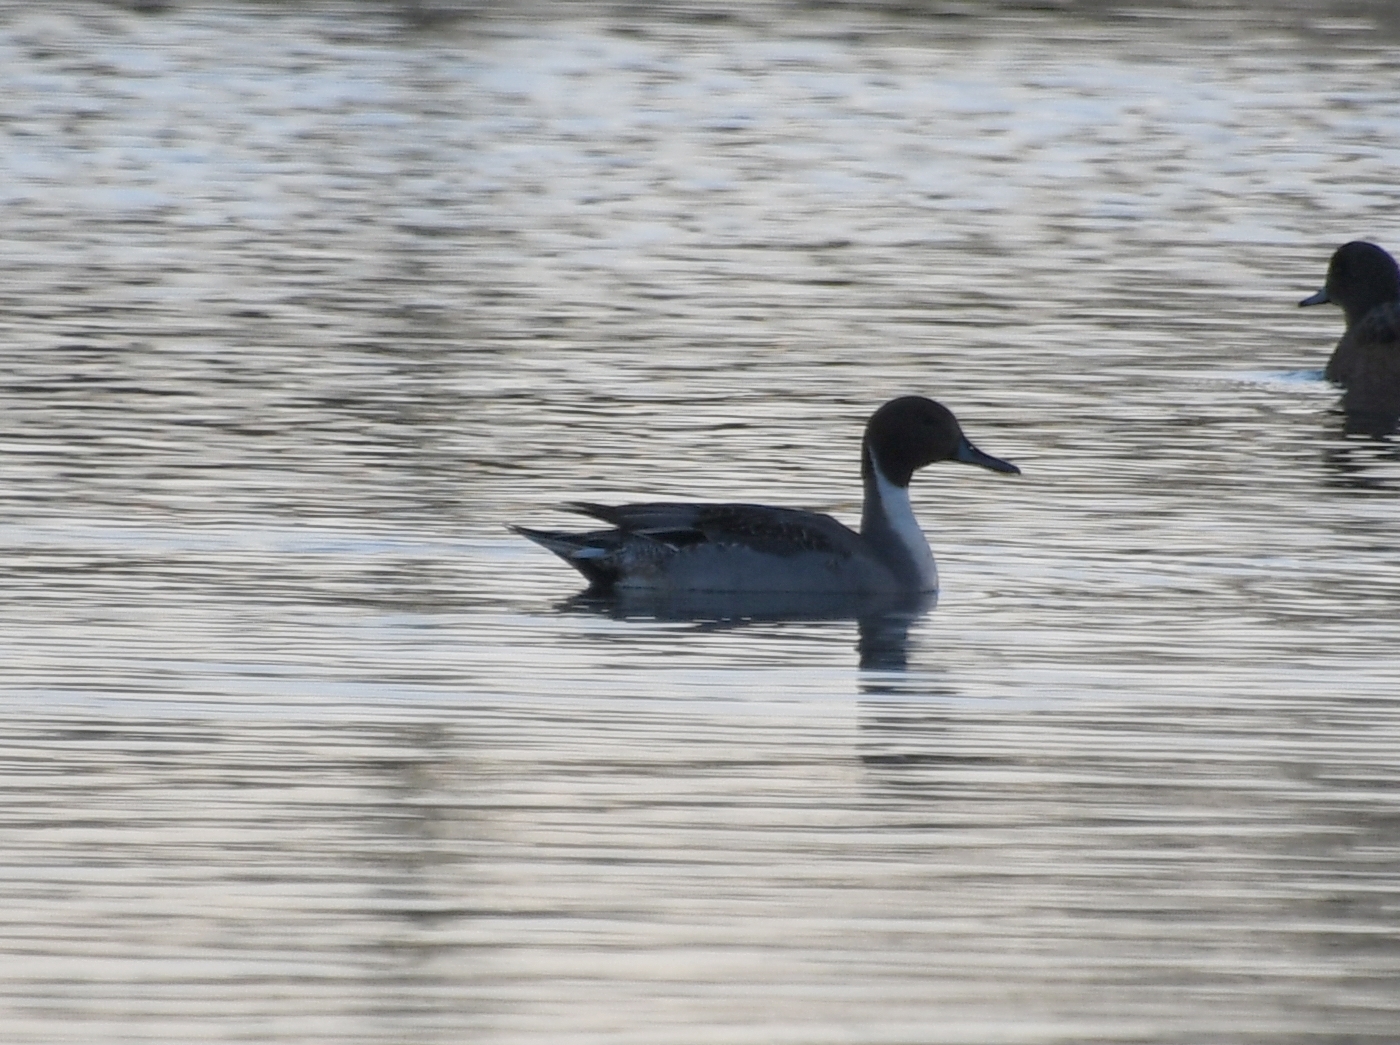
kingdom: Animalia
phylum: Chordata
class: Aves
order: Anseriformes
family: Anatidae
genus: Anas
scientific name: Anas acuta
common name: Northern pintail
